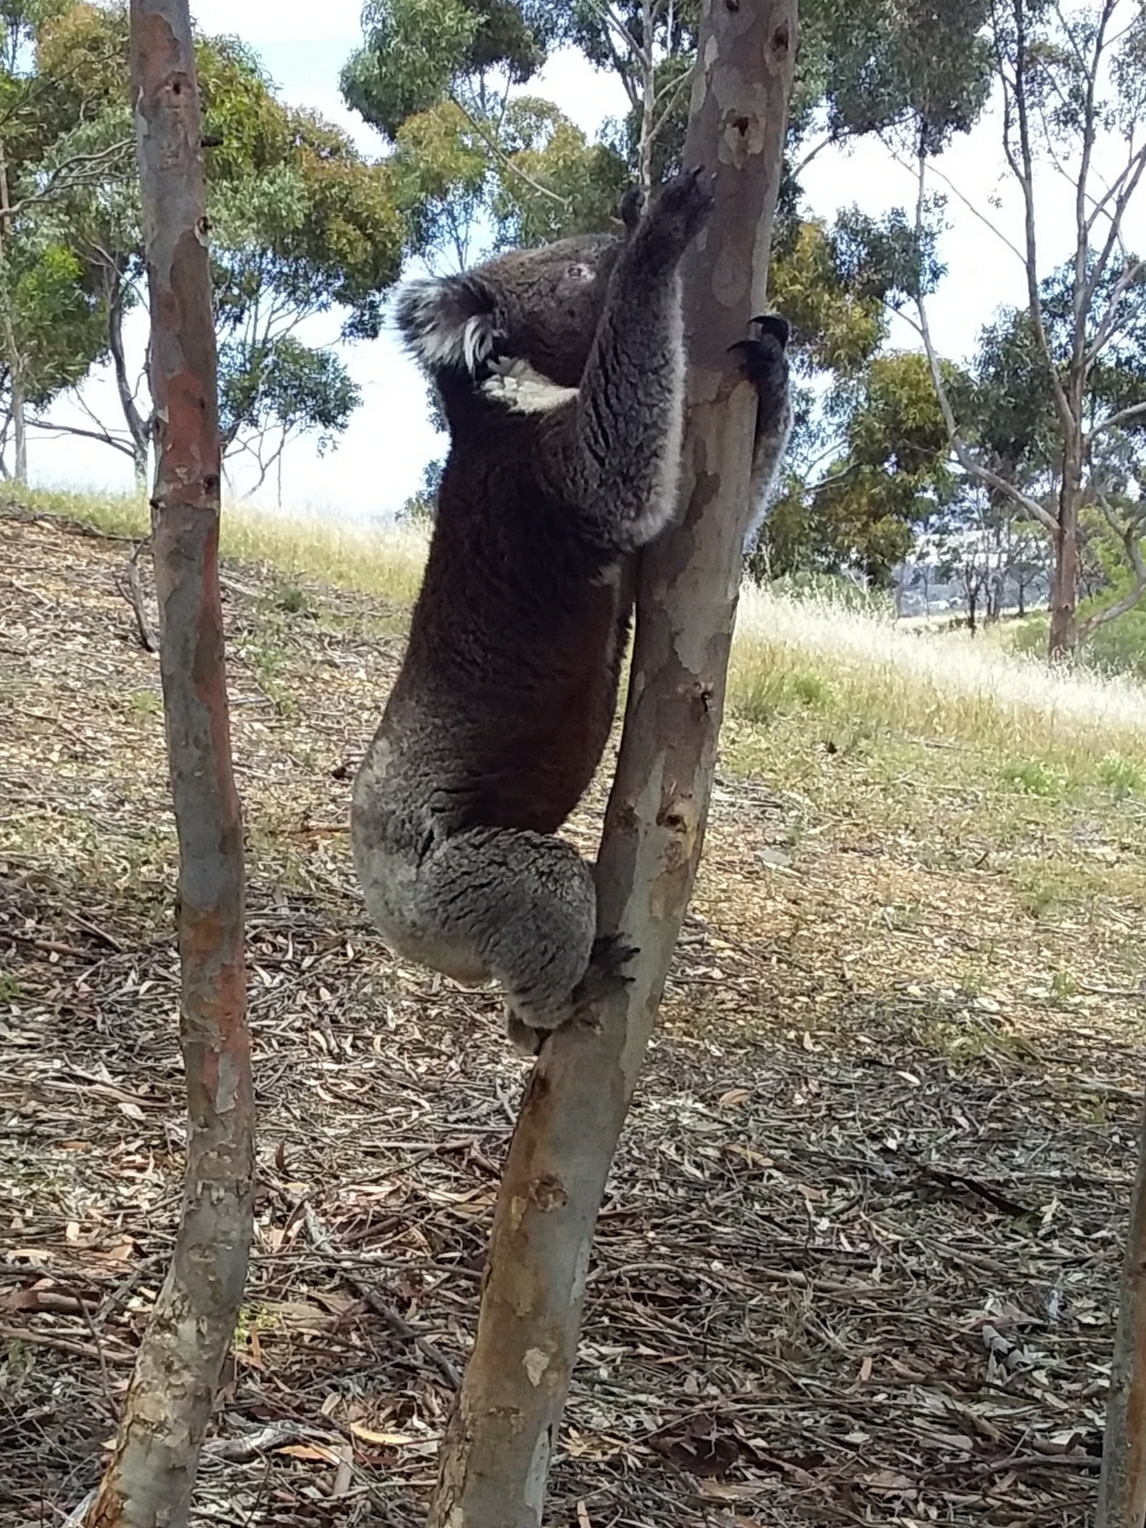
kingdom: Animalia
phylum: Chordata
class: Mammalia
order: Diprotodontia
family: Phascolarctidae
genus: Phascolarctos
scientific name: Phascolarctos cinereus
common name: Koala
